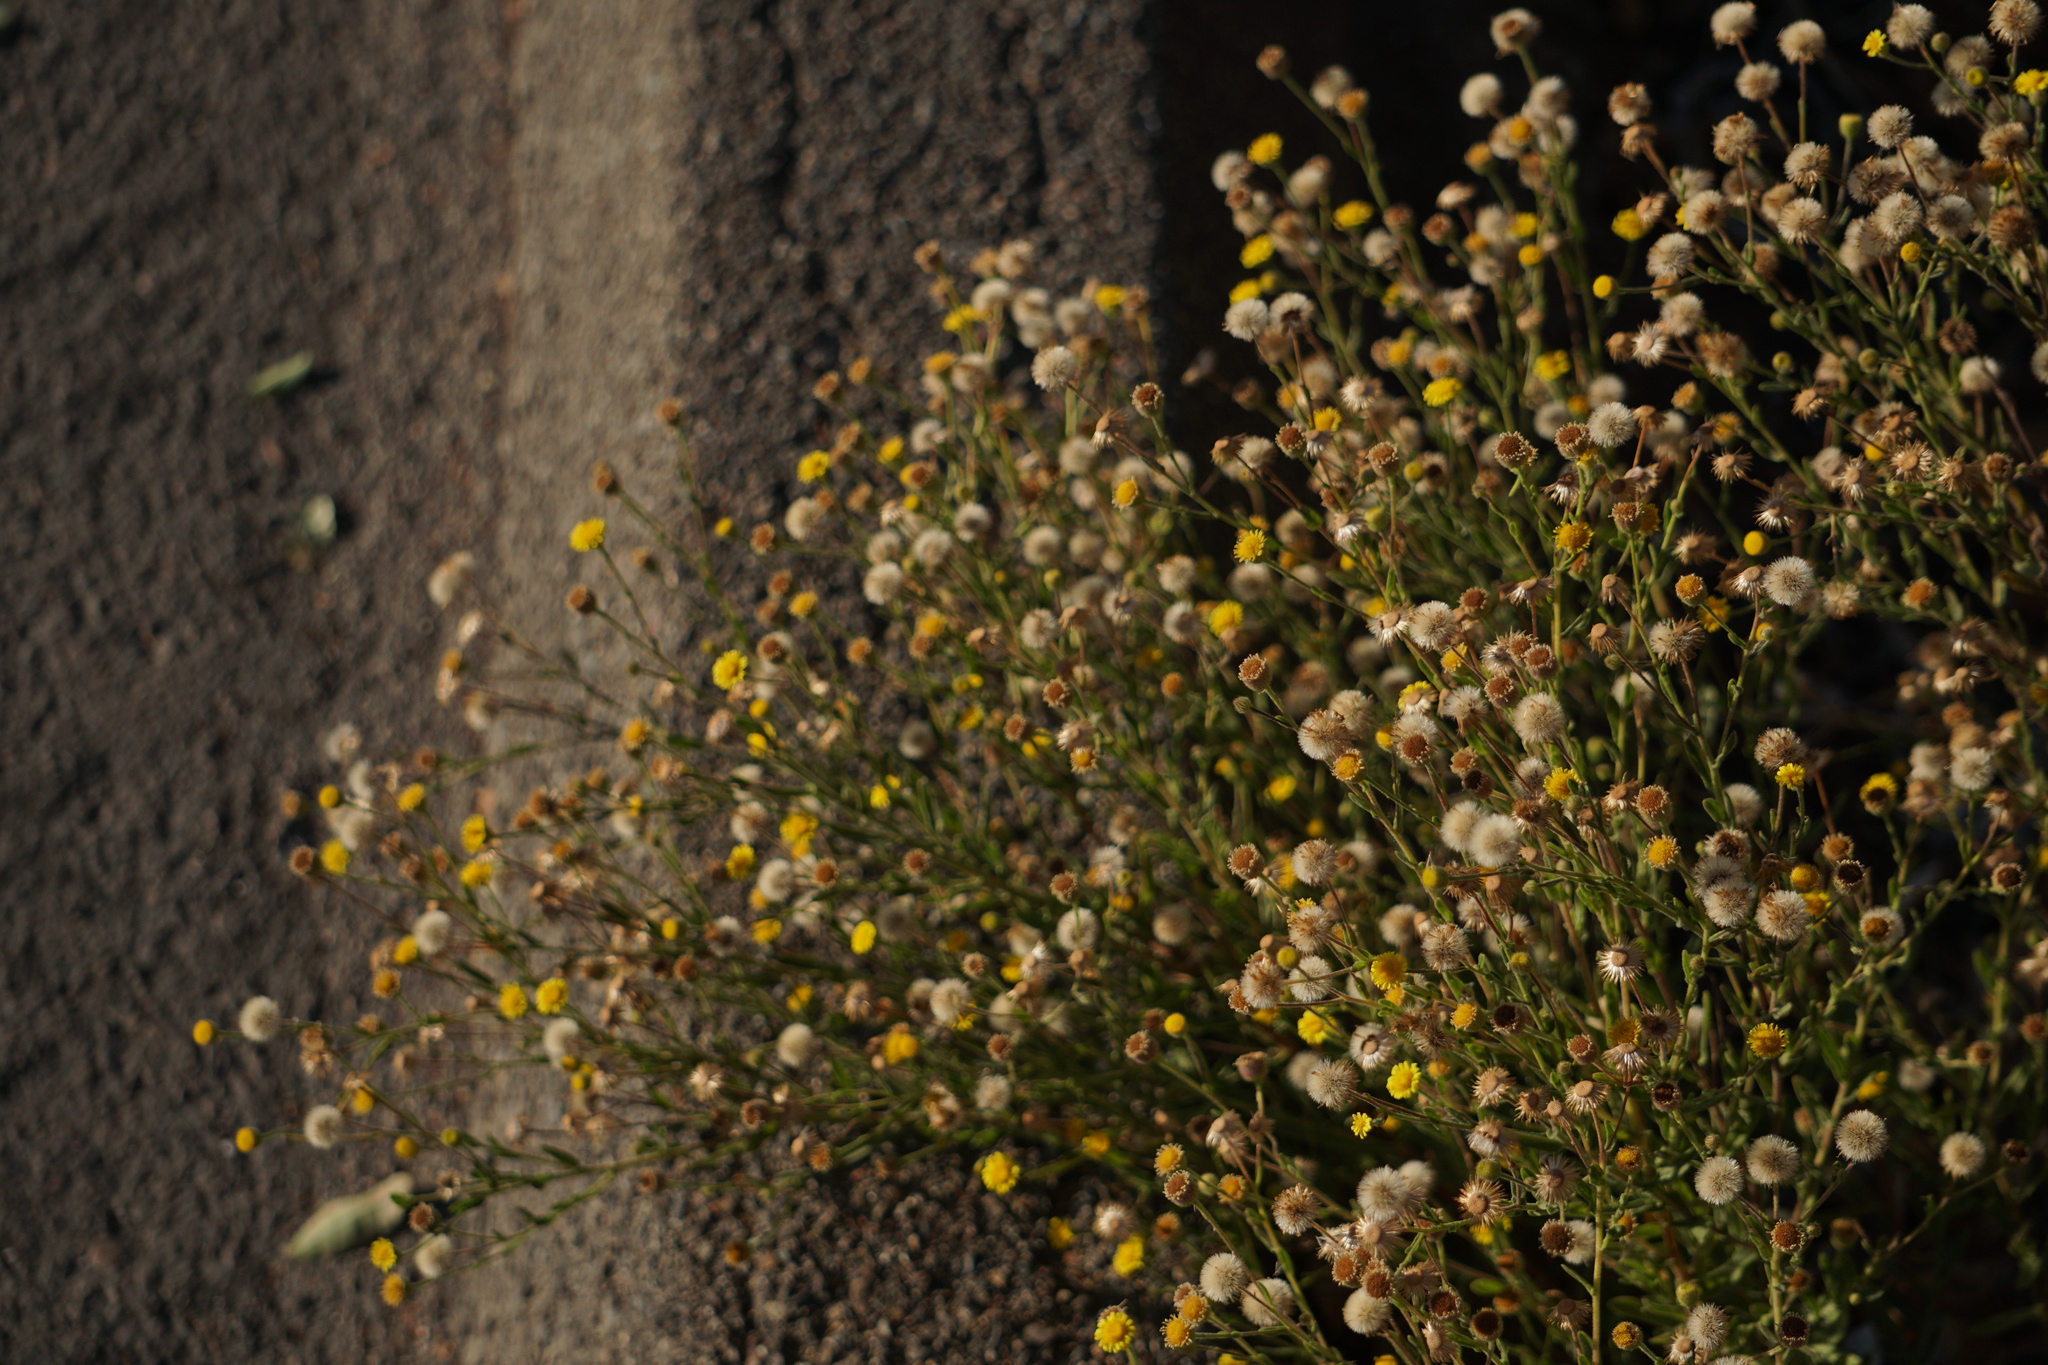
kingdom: Plantae
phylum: Tracheophyta
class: Magnoliopsida
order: Asterales
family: Asteraceae
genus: Pulicaria
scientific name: Pulicaria paludosa
